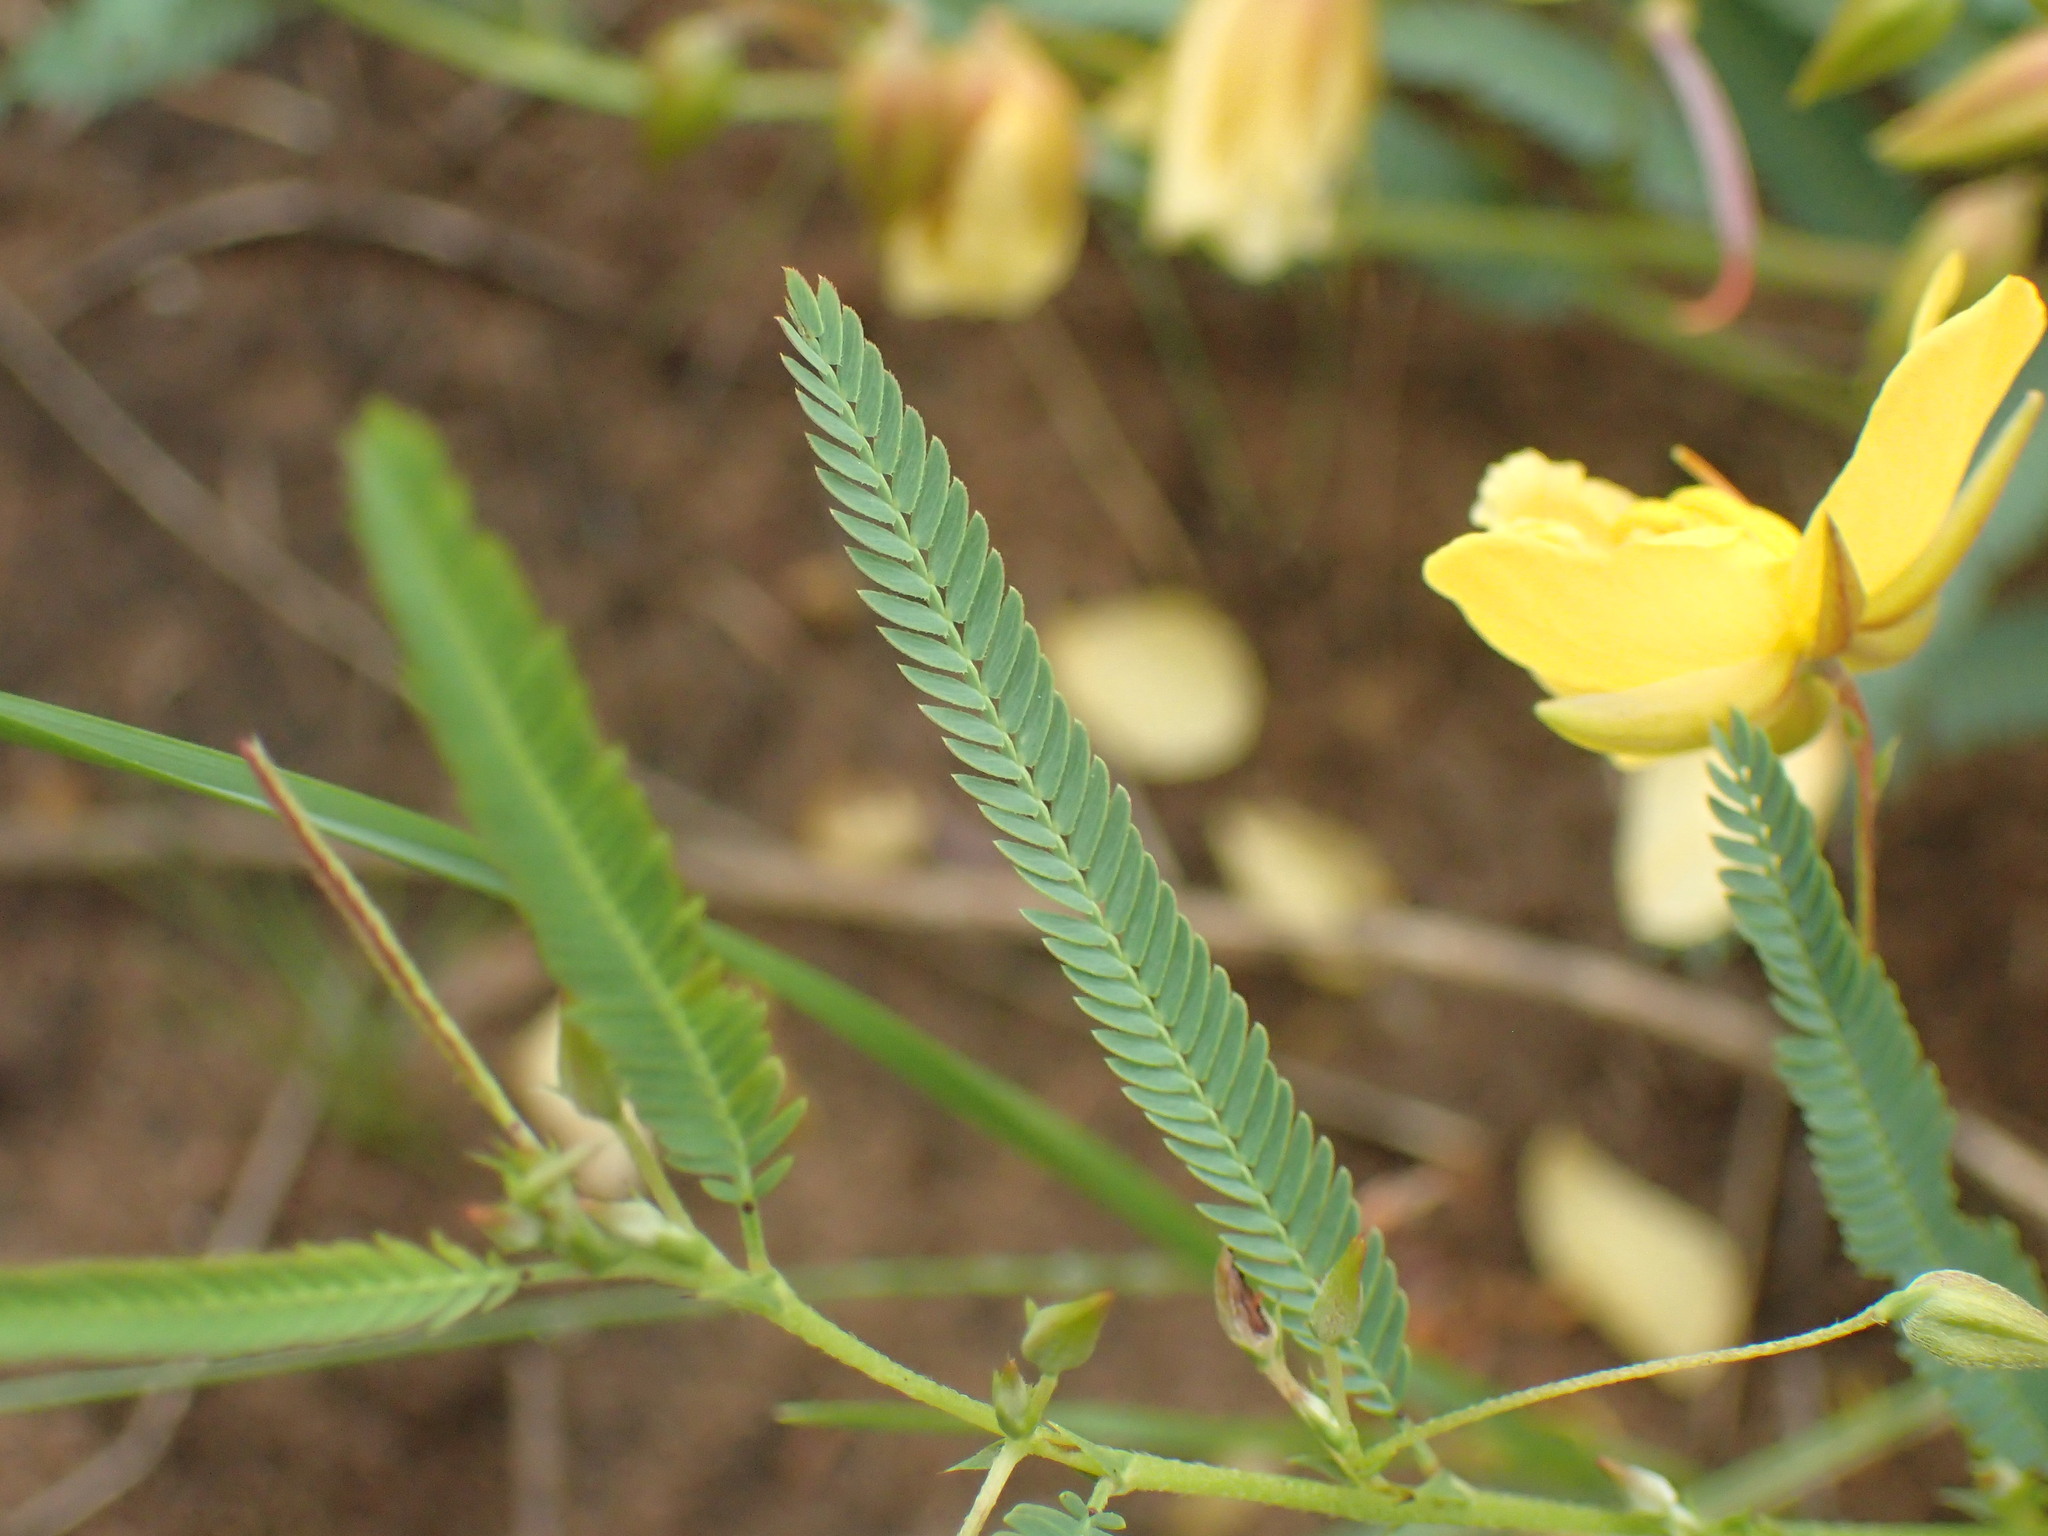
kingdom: Plantae
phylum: Tracheophyta
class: Magnoliopsida
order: Fabales
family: Fabaceae
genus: Chamaecrista
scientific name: Chamaecrista comosa
